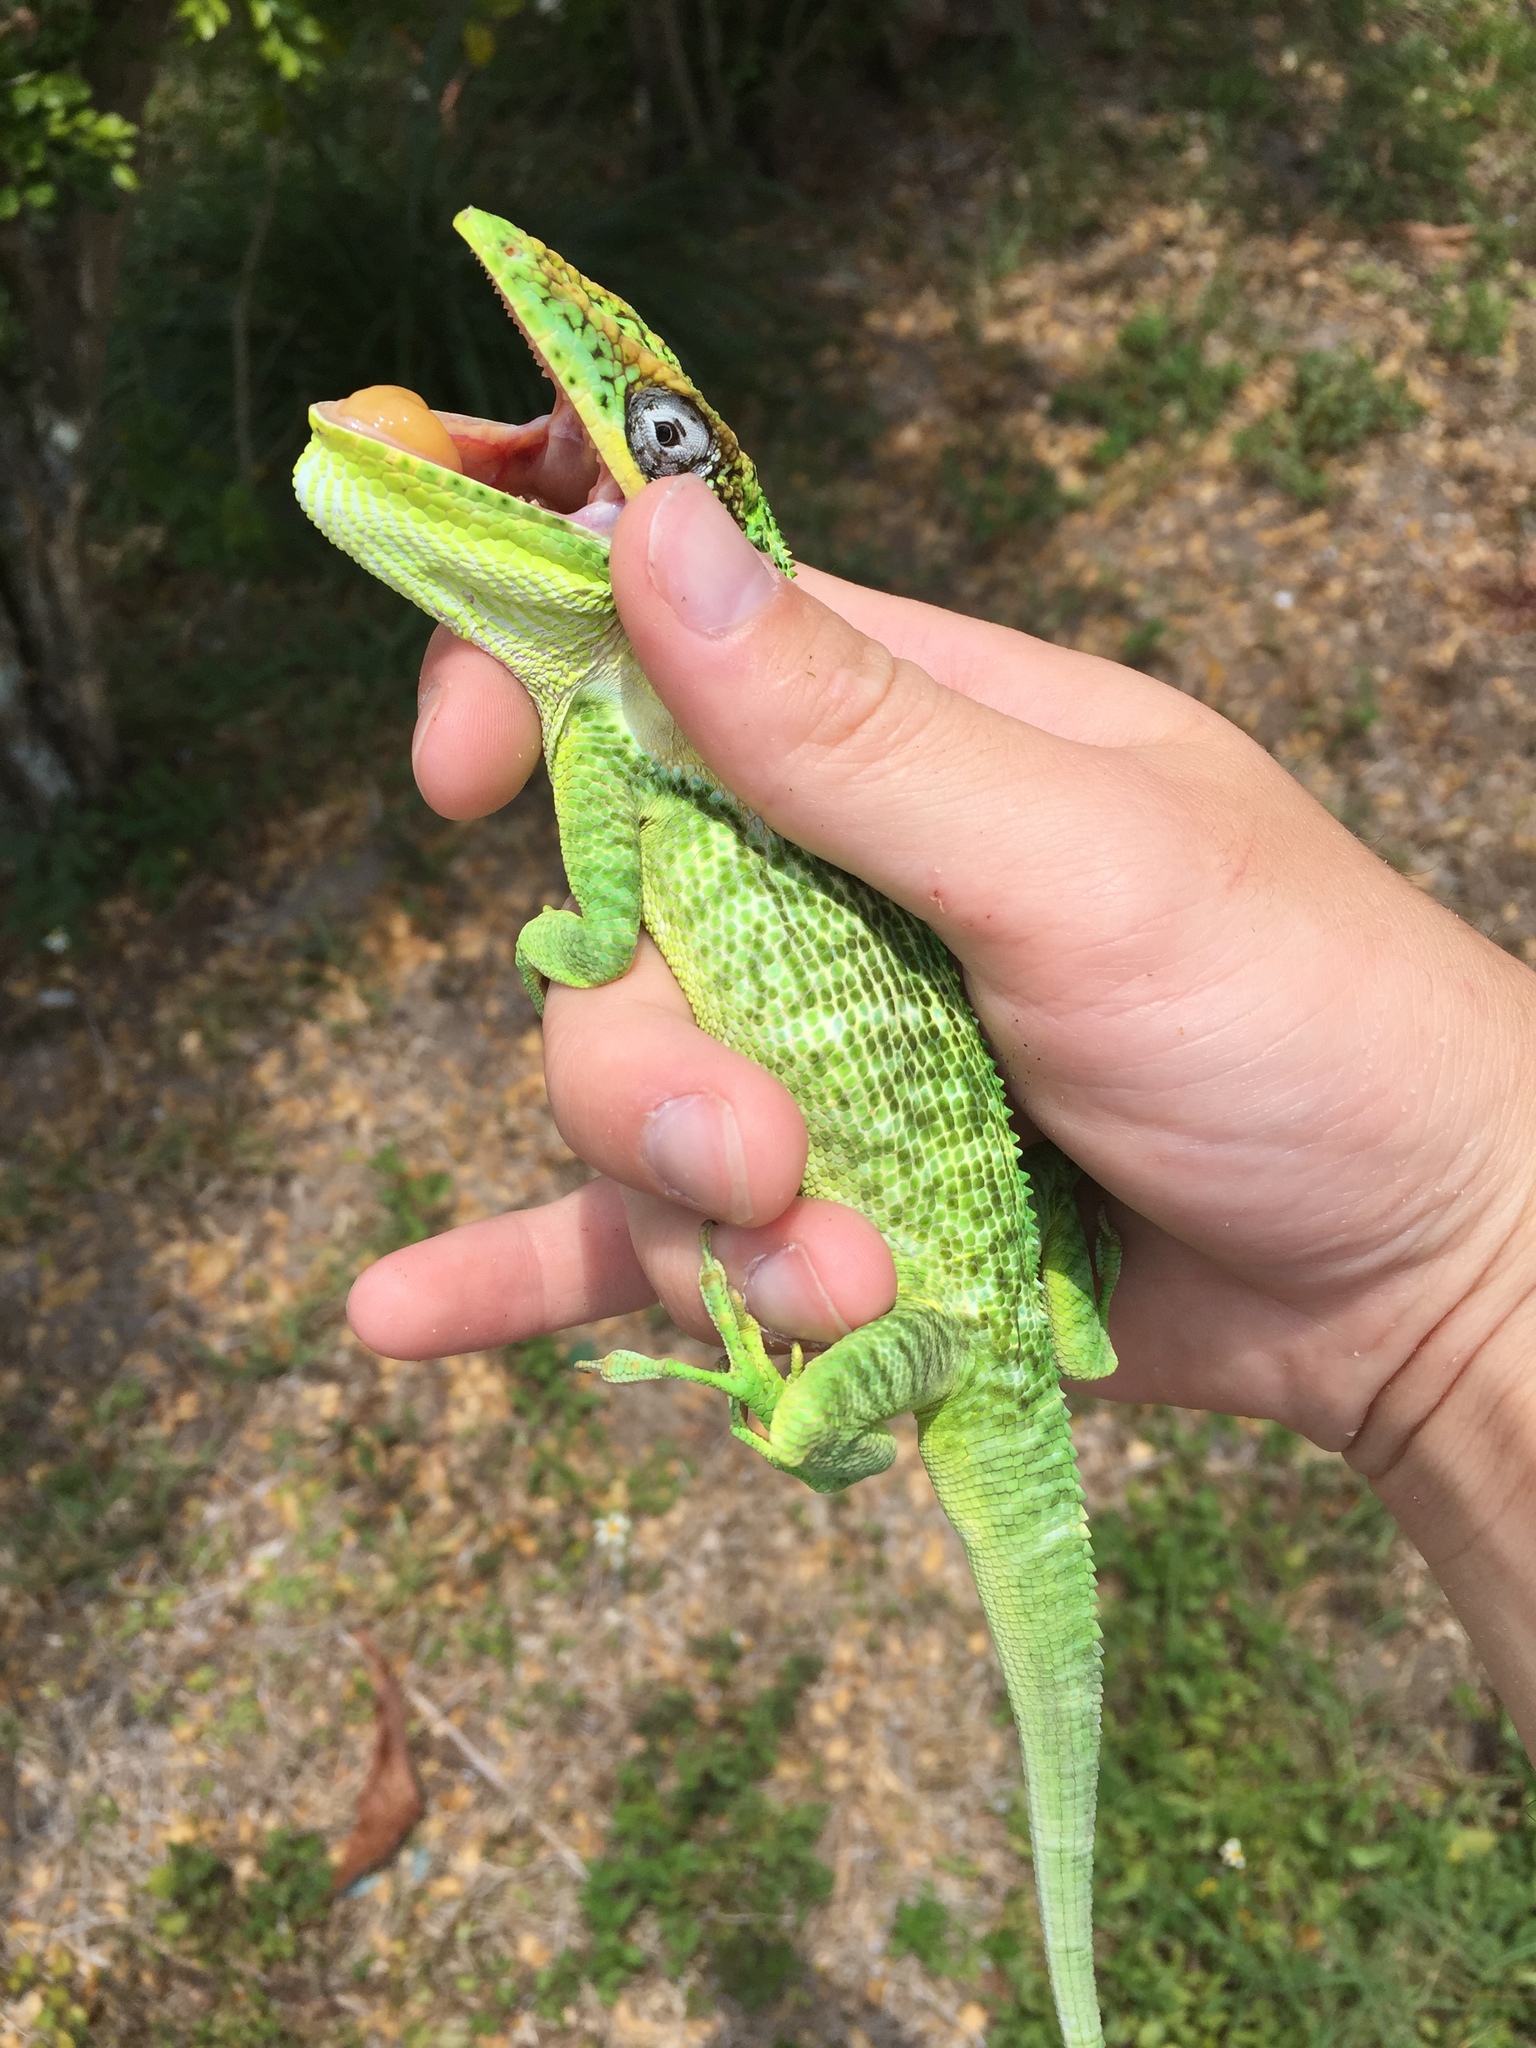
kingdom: Animalia
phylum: Chordata
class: Squamata
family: Dactyloidae
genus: Anolis
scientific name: Anolis equestris
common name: Knight anole
